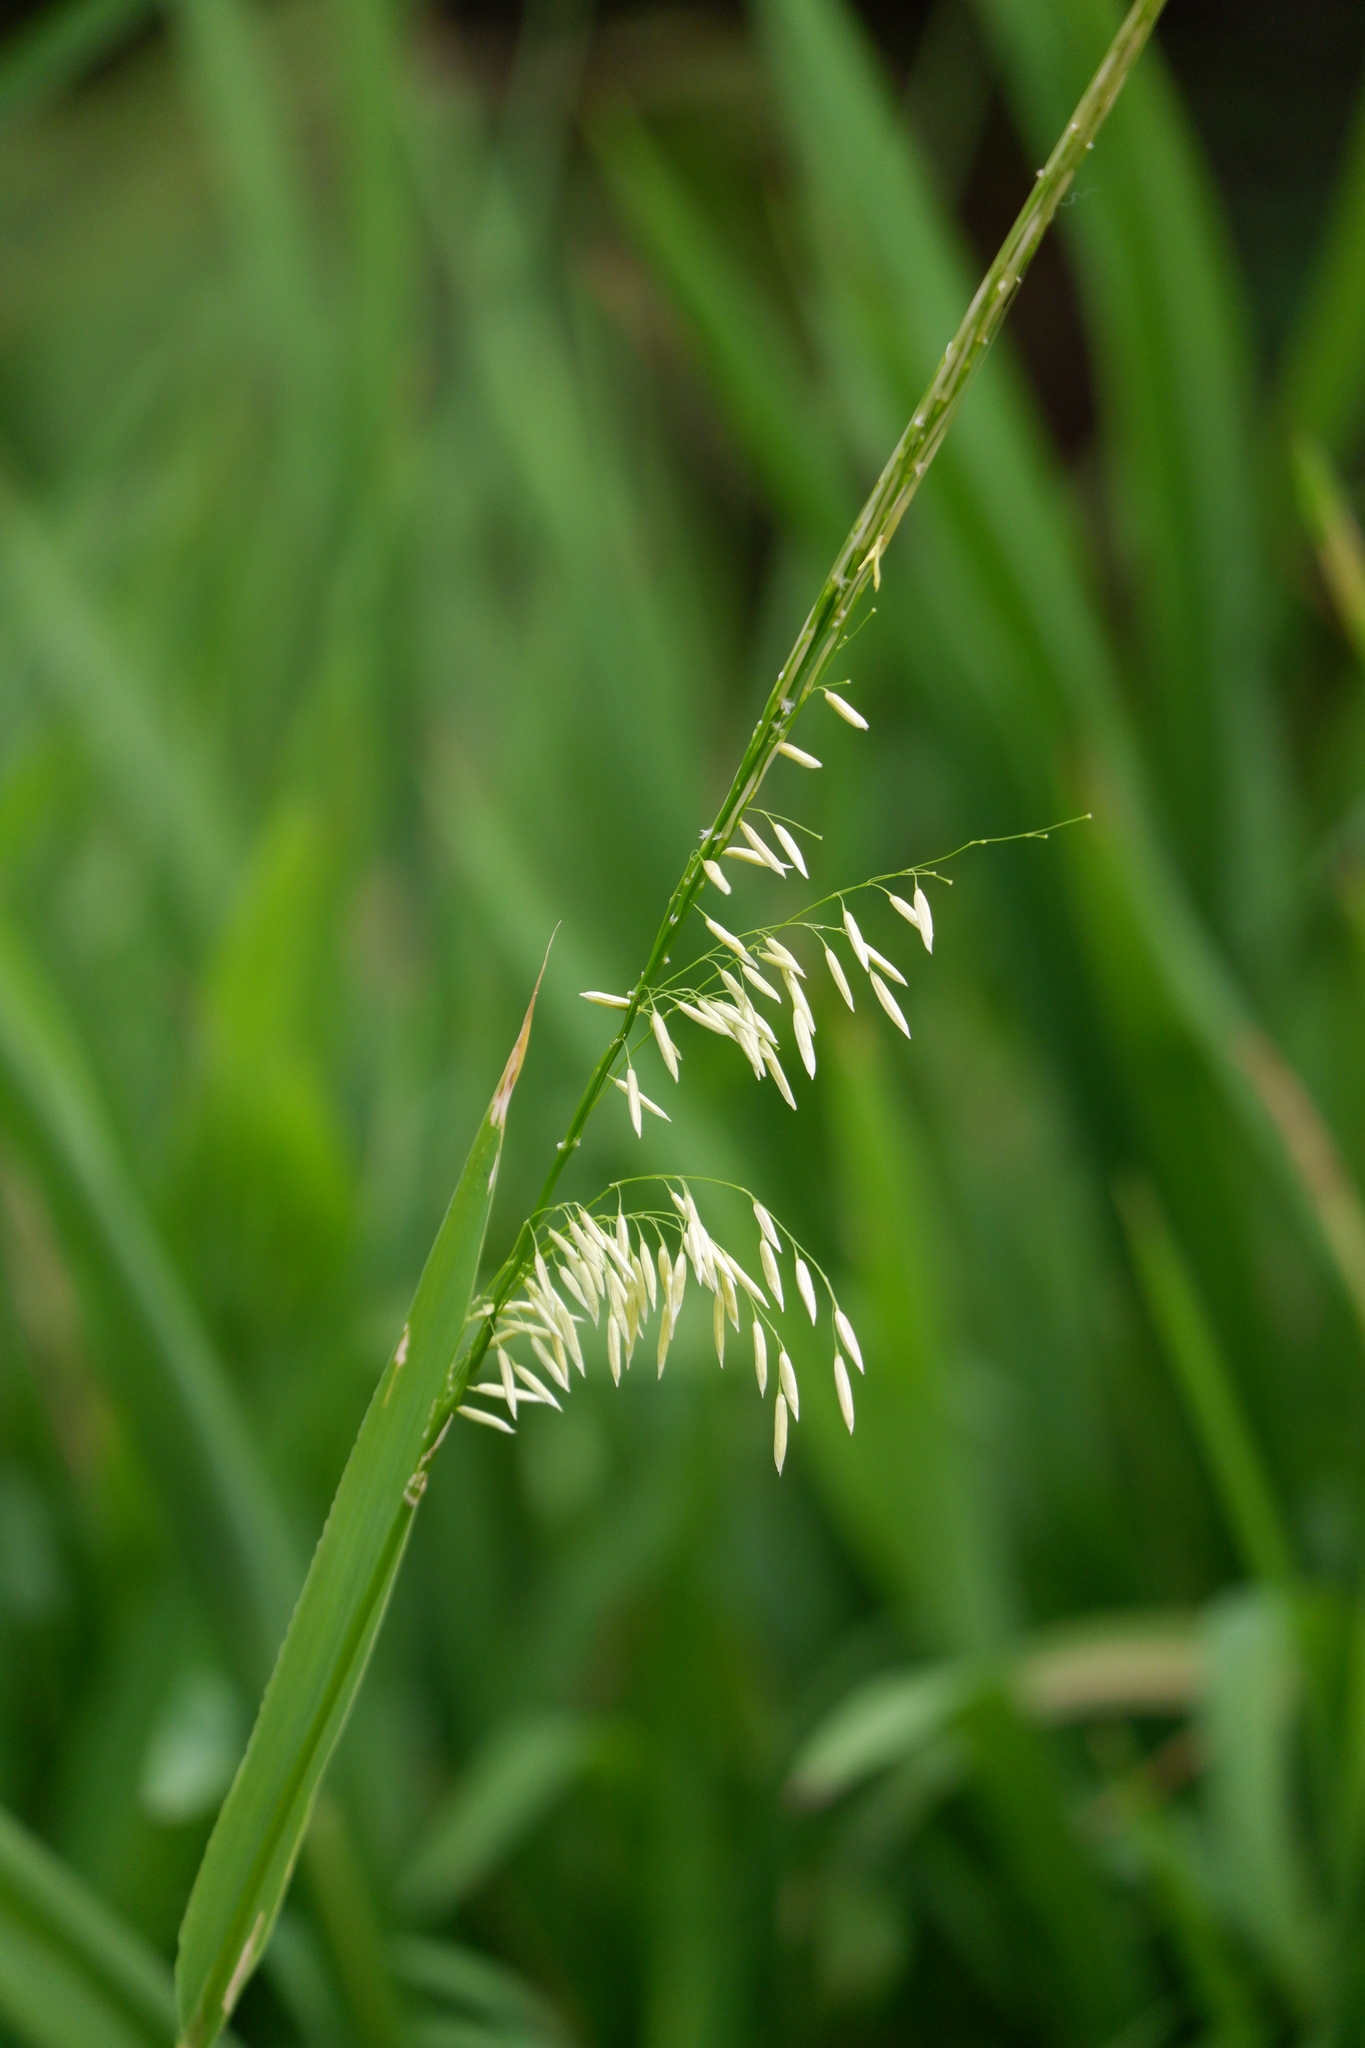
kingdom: Plantae
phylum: Tracheophyta
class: Liliopsida
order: Poales
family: Poaceae
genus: Zizania
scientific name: Zizania texana
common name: Texas wild rice
